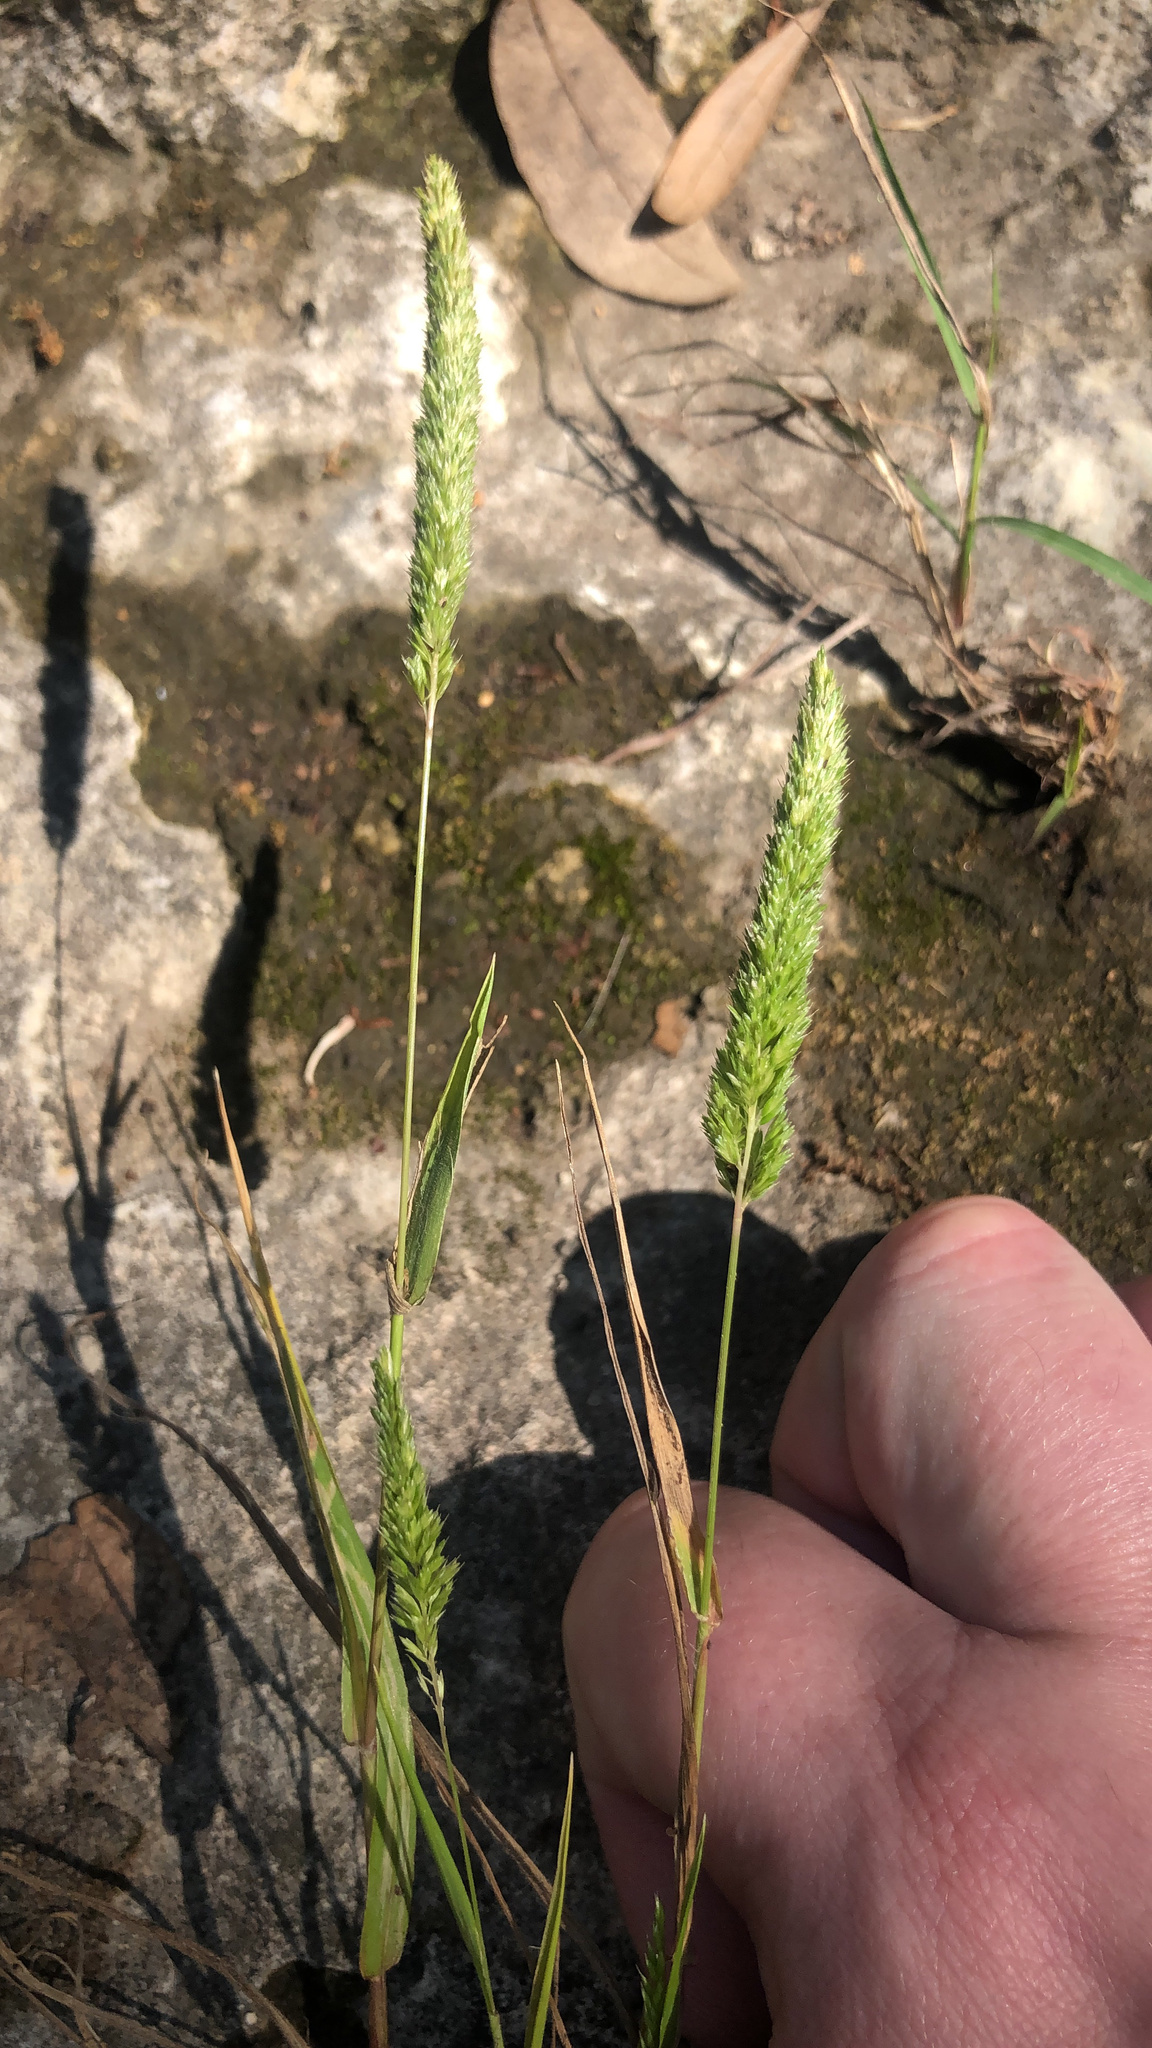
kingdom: Plantae
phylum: Tracheophyta
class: Liliopsida
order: Poales
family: Poaceae
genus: Rostraria
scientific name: Rostraria cristata
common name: Mediterranean hair-grass
